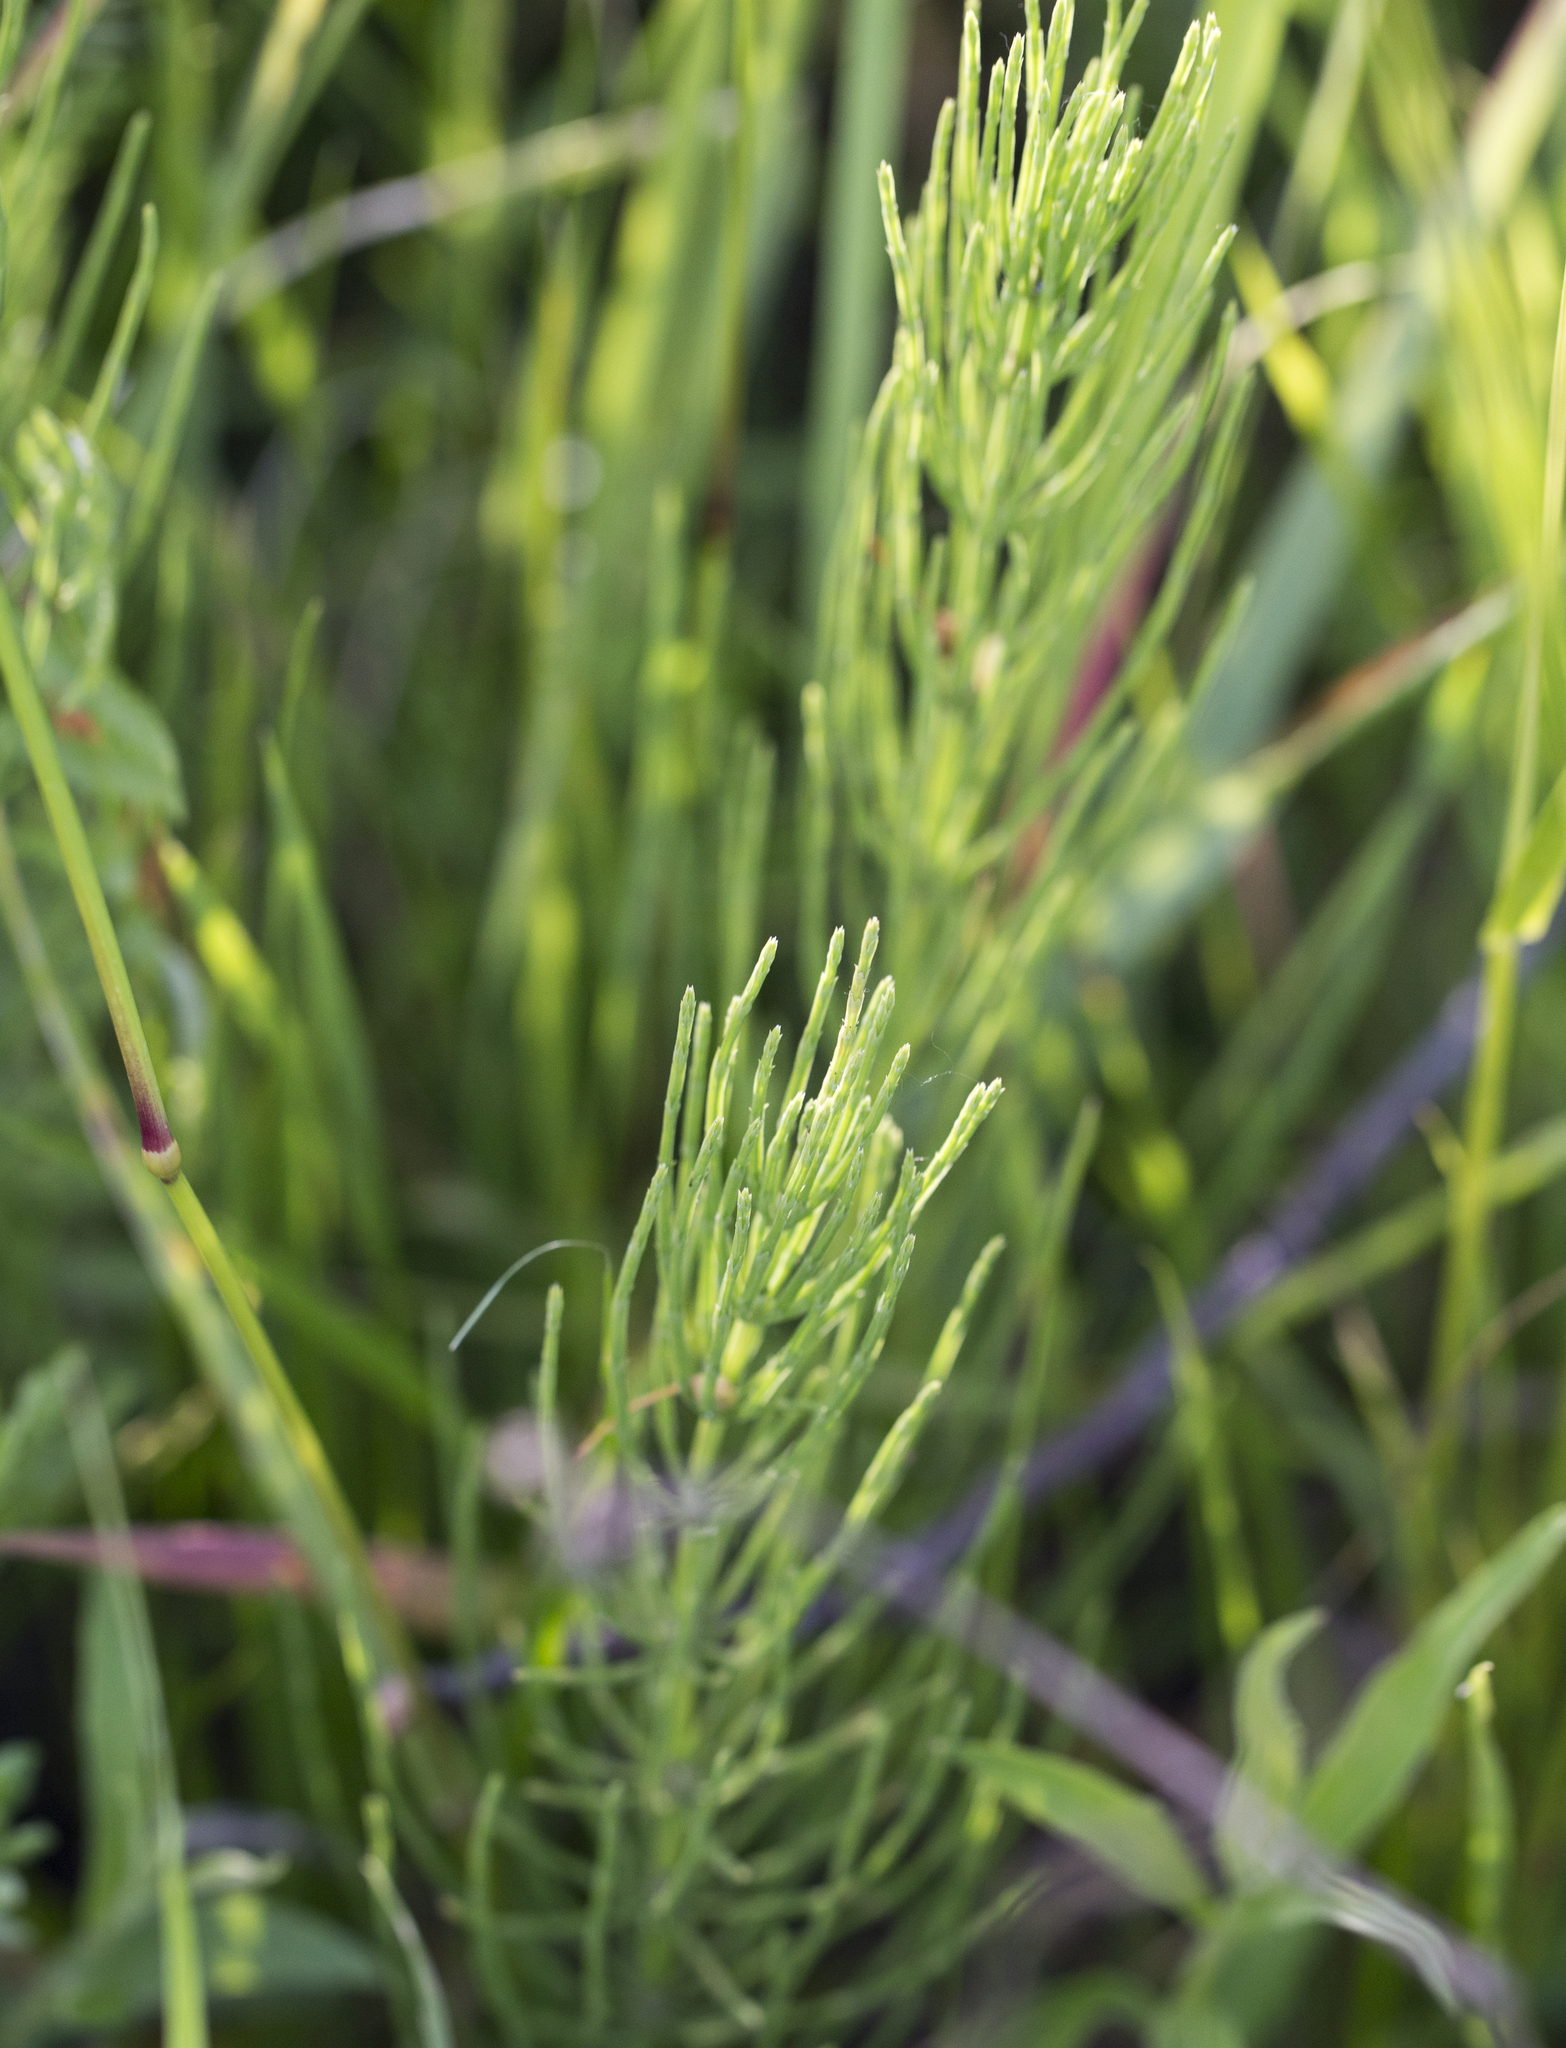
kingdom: Plantae
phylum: Tracheophyta
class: Polypodiopsida
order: Equisetales
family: Equisetaceae
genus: Equisetum
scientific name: Equisetum arvense
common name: Field horsetail
